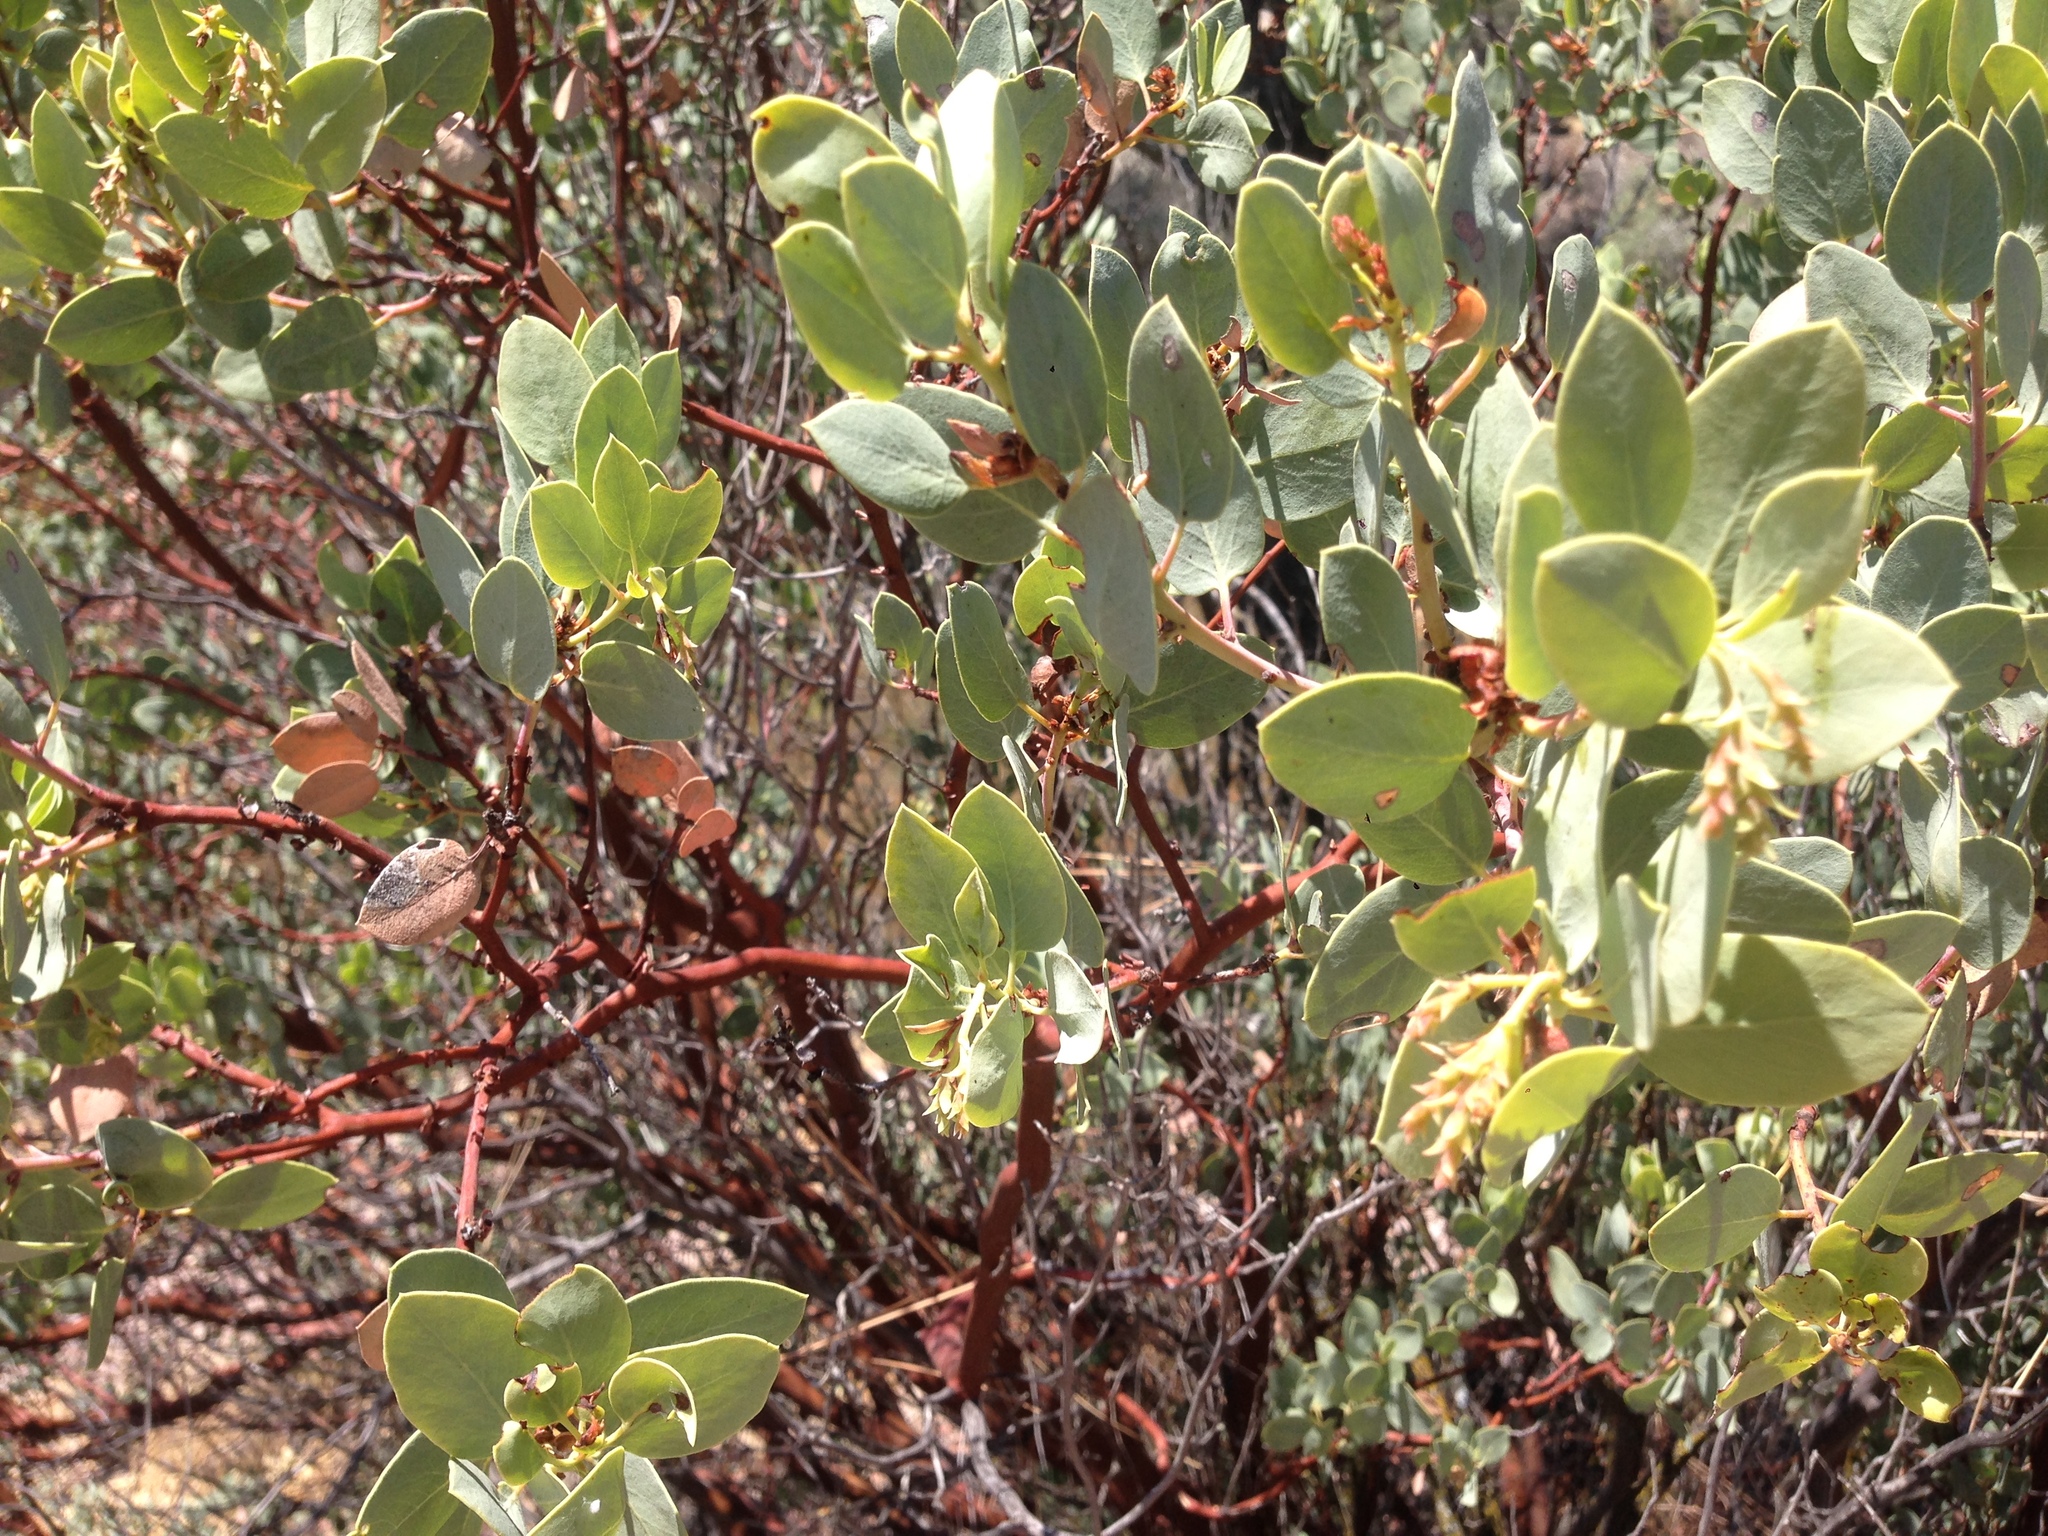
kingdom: Plantae
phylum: Tracheophyta
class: Magnoliopsida
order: Ericales
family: Ericaceae
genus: Arctostaphylos
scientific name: Arctostaphylos glauca
